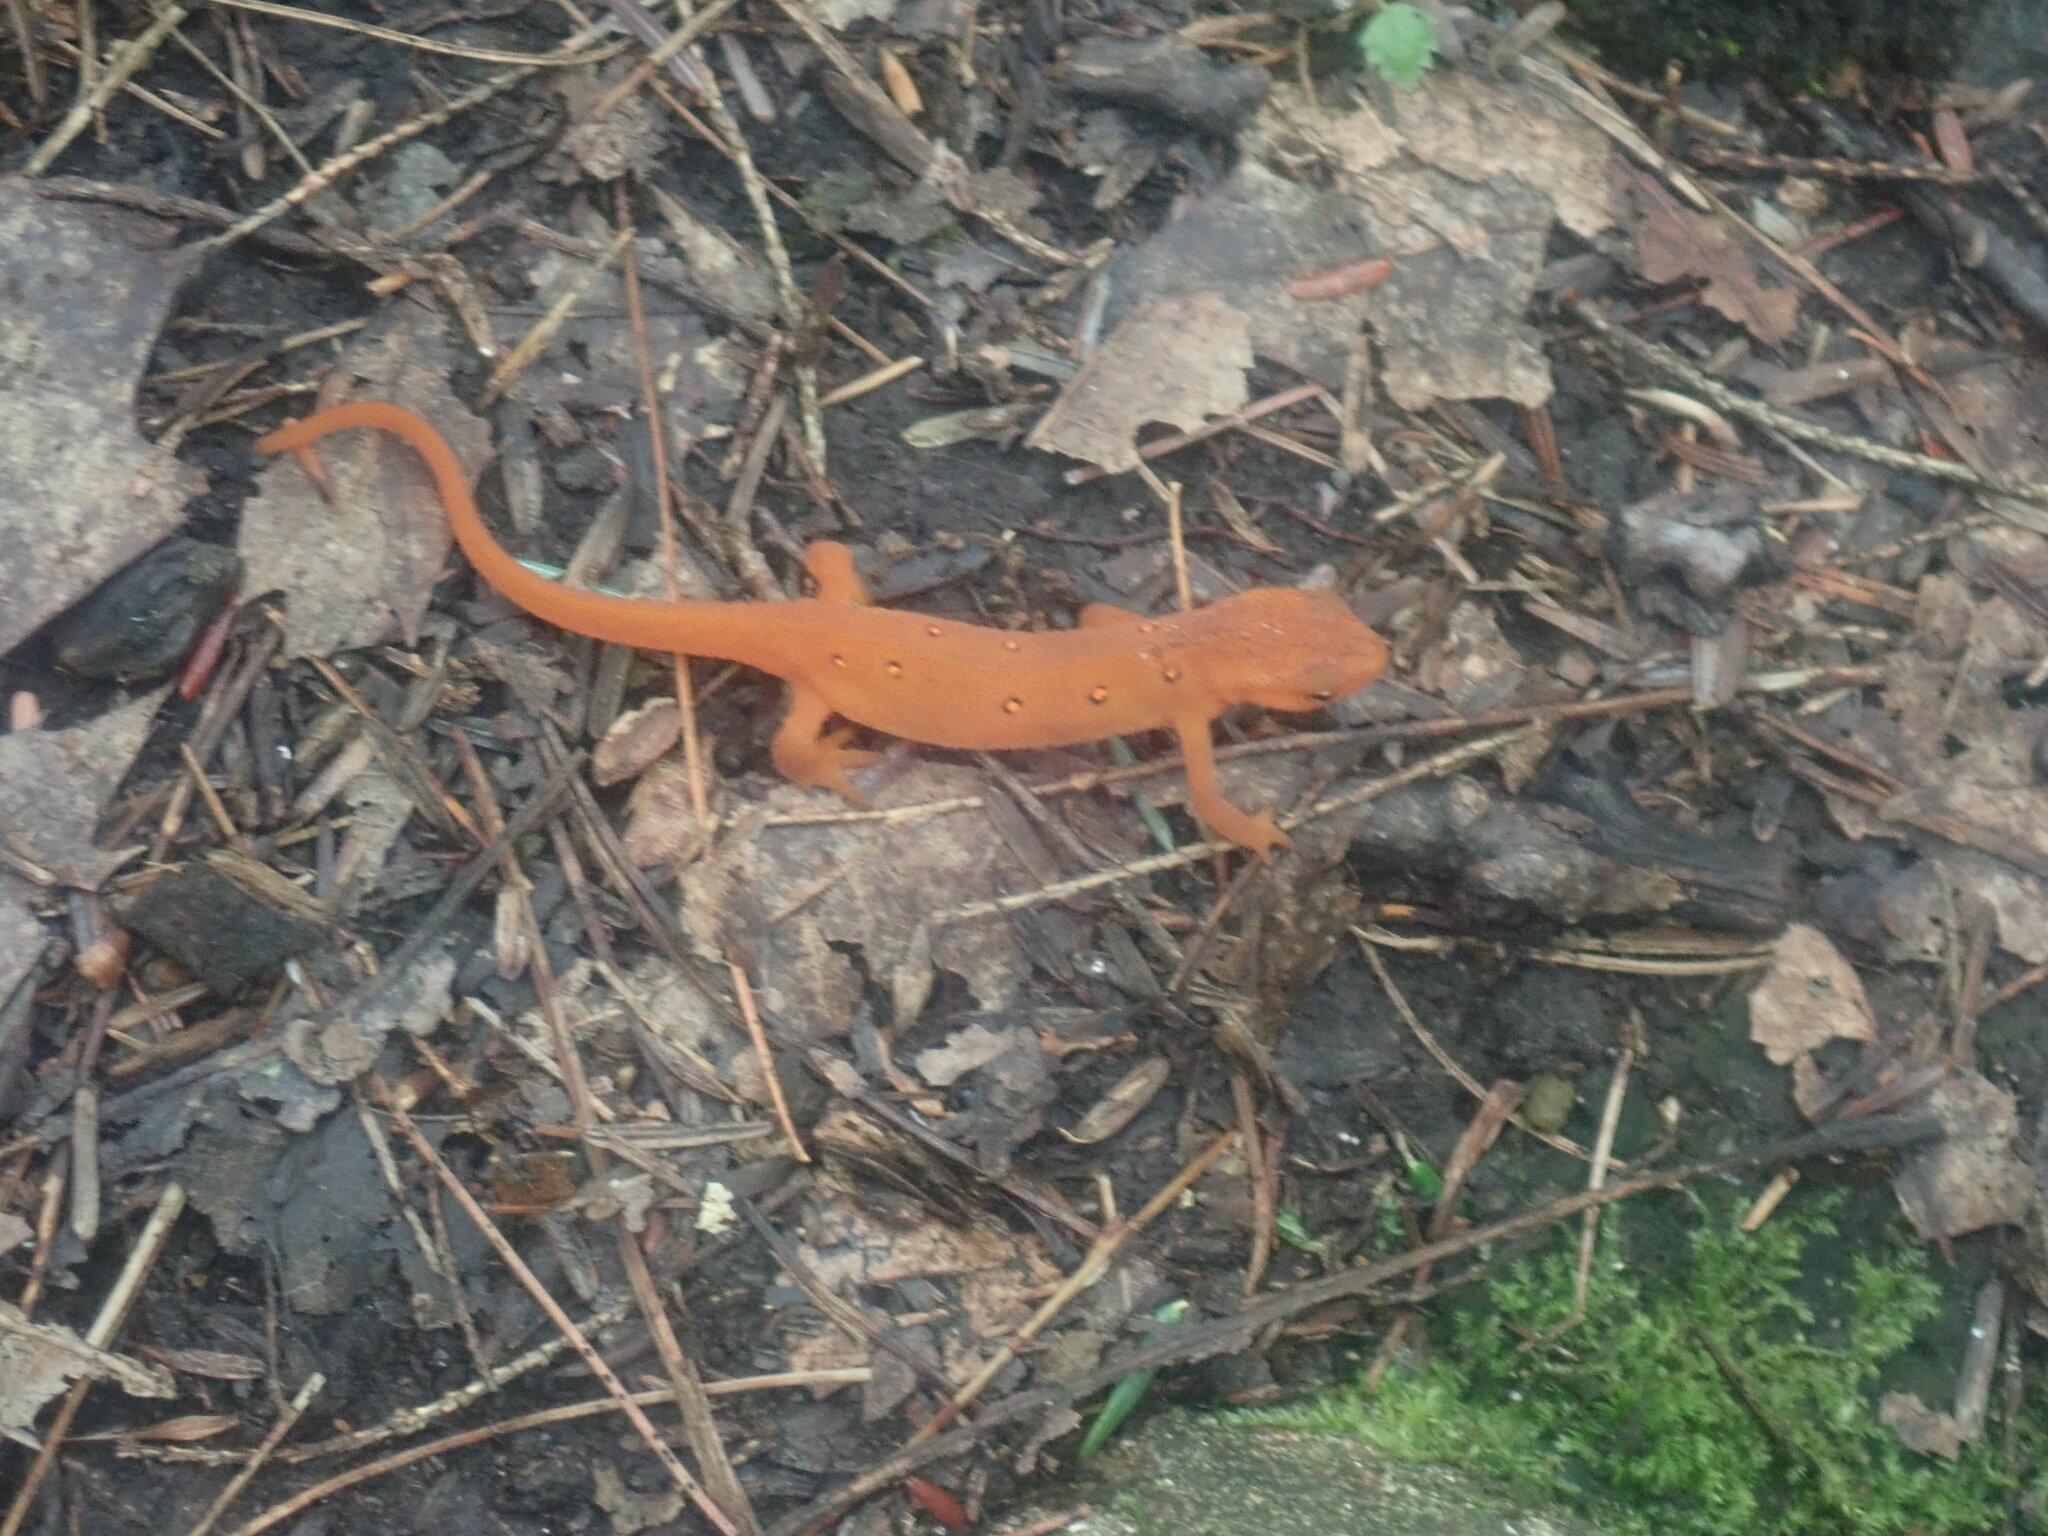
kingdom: Animalia
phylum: Chordata
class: Amphibia
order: Caudata
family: Salamandridae
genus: Notophthalmus
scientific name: Notophthalmus viridescens
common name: Eastern newt
